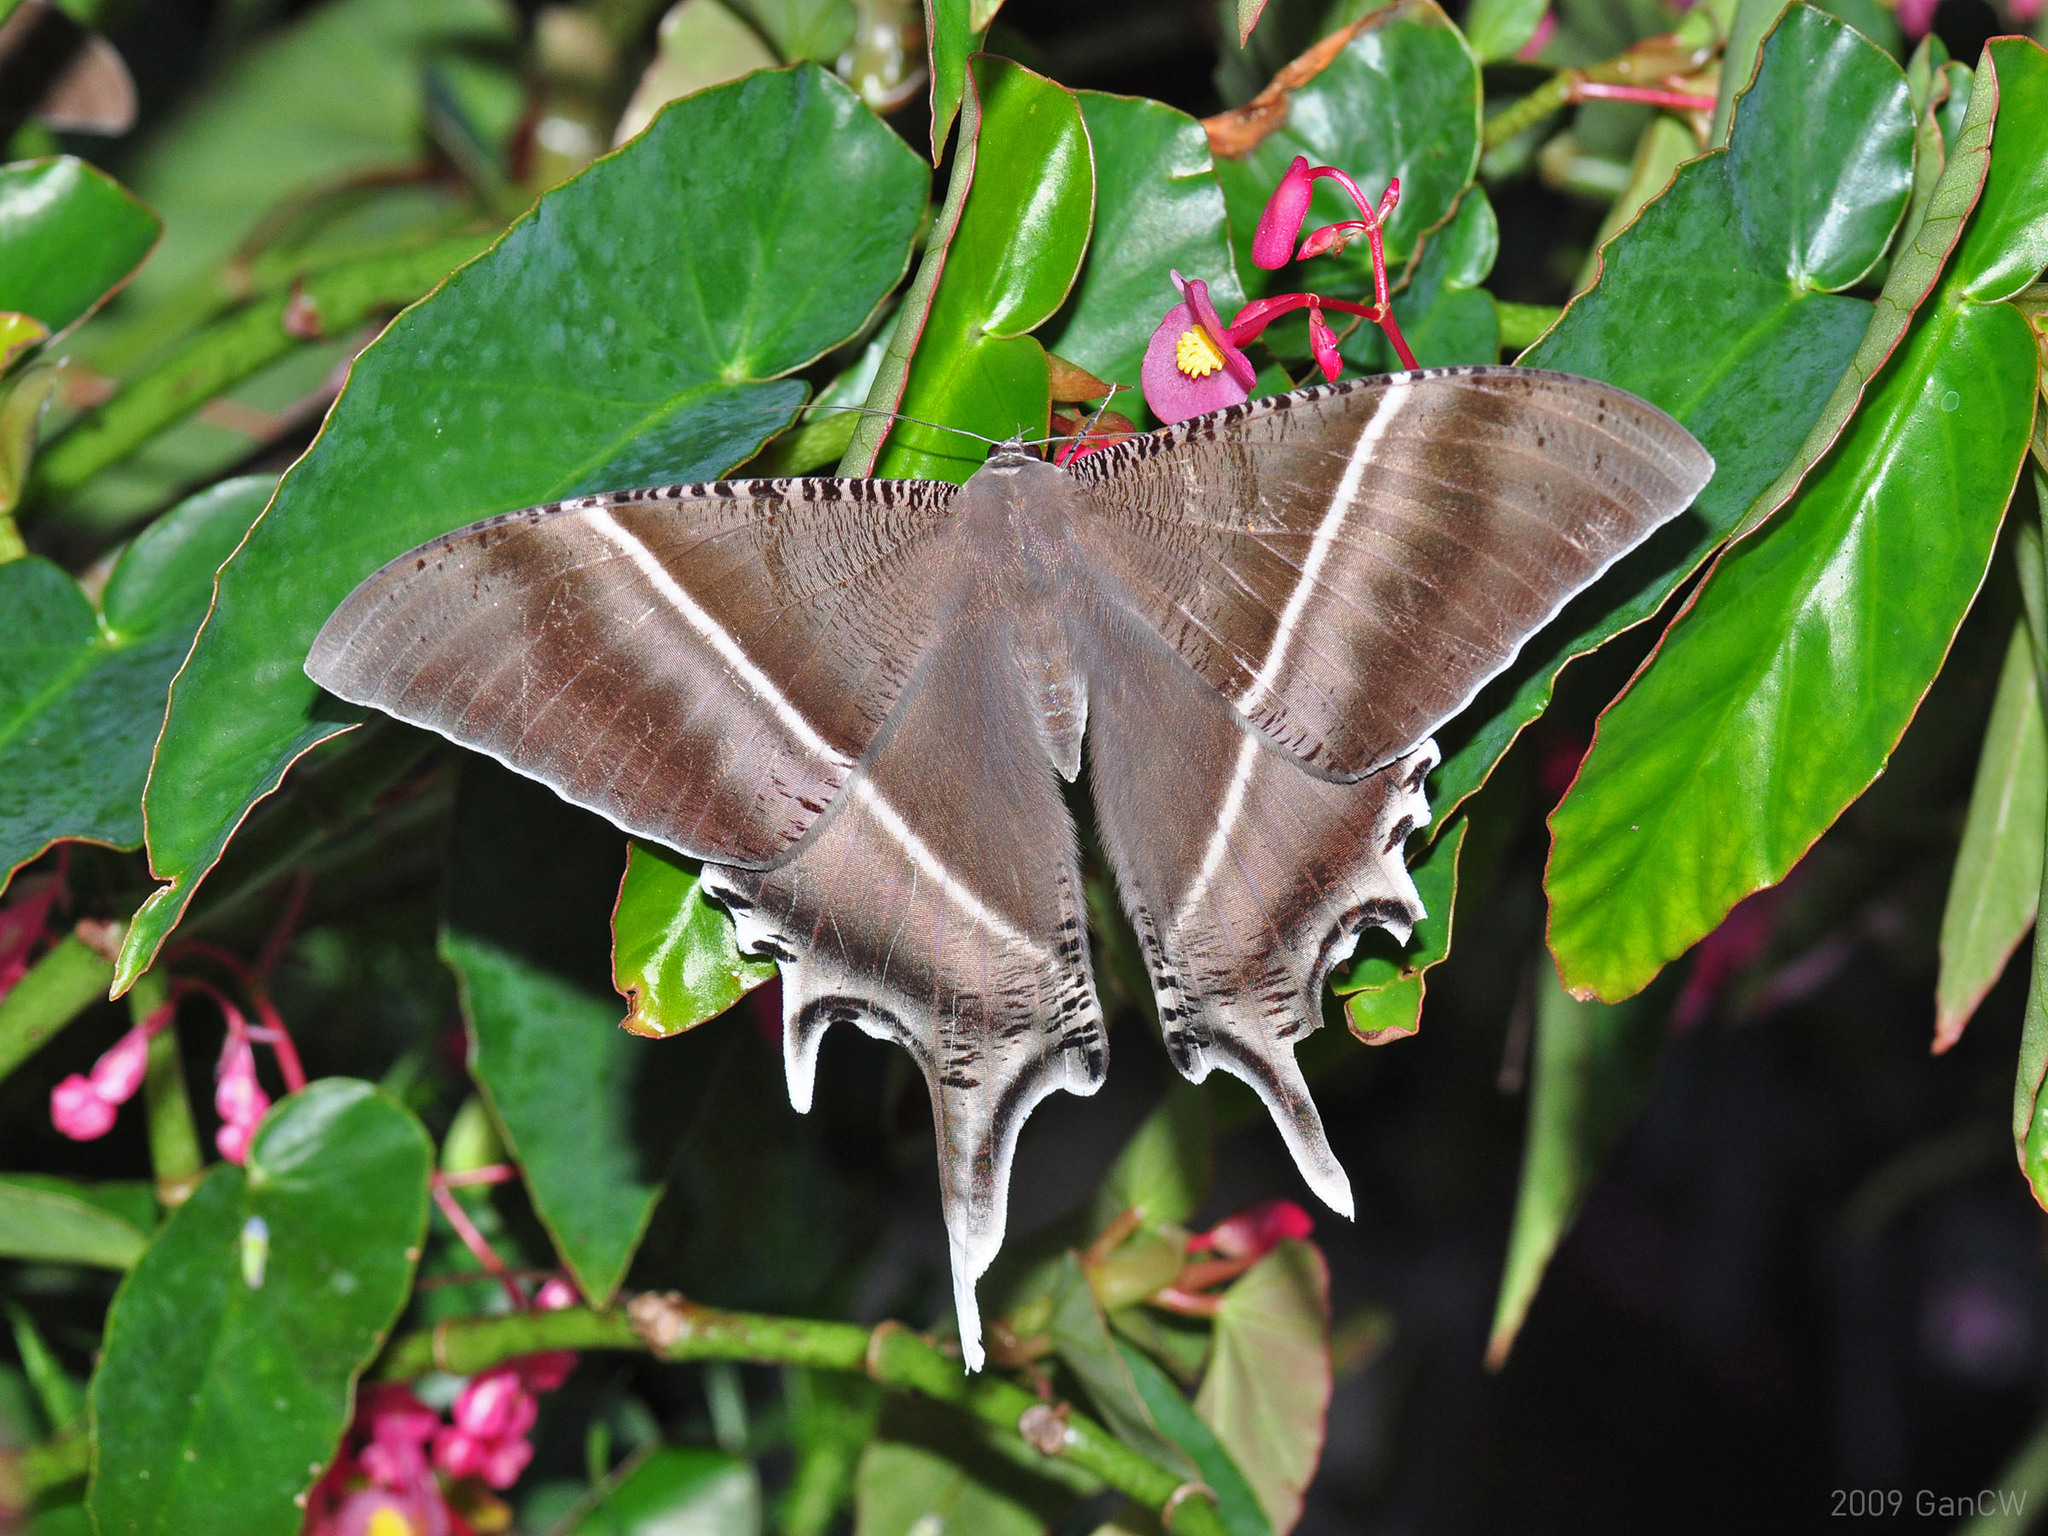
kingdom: Animalia
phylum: Arthropoda
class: Insecta
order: Lepidoptera
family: Uraniidae
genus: Lyssa
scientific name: Lyssa zampa
